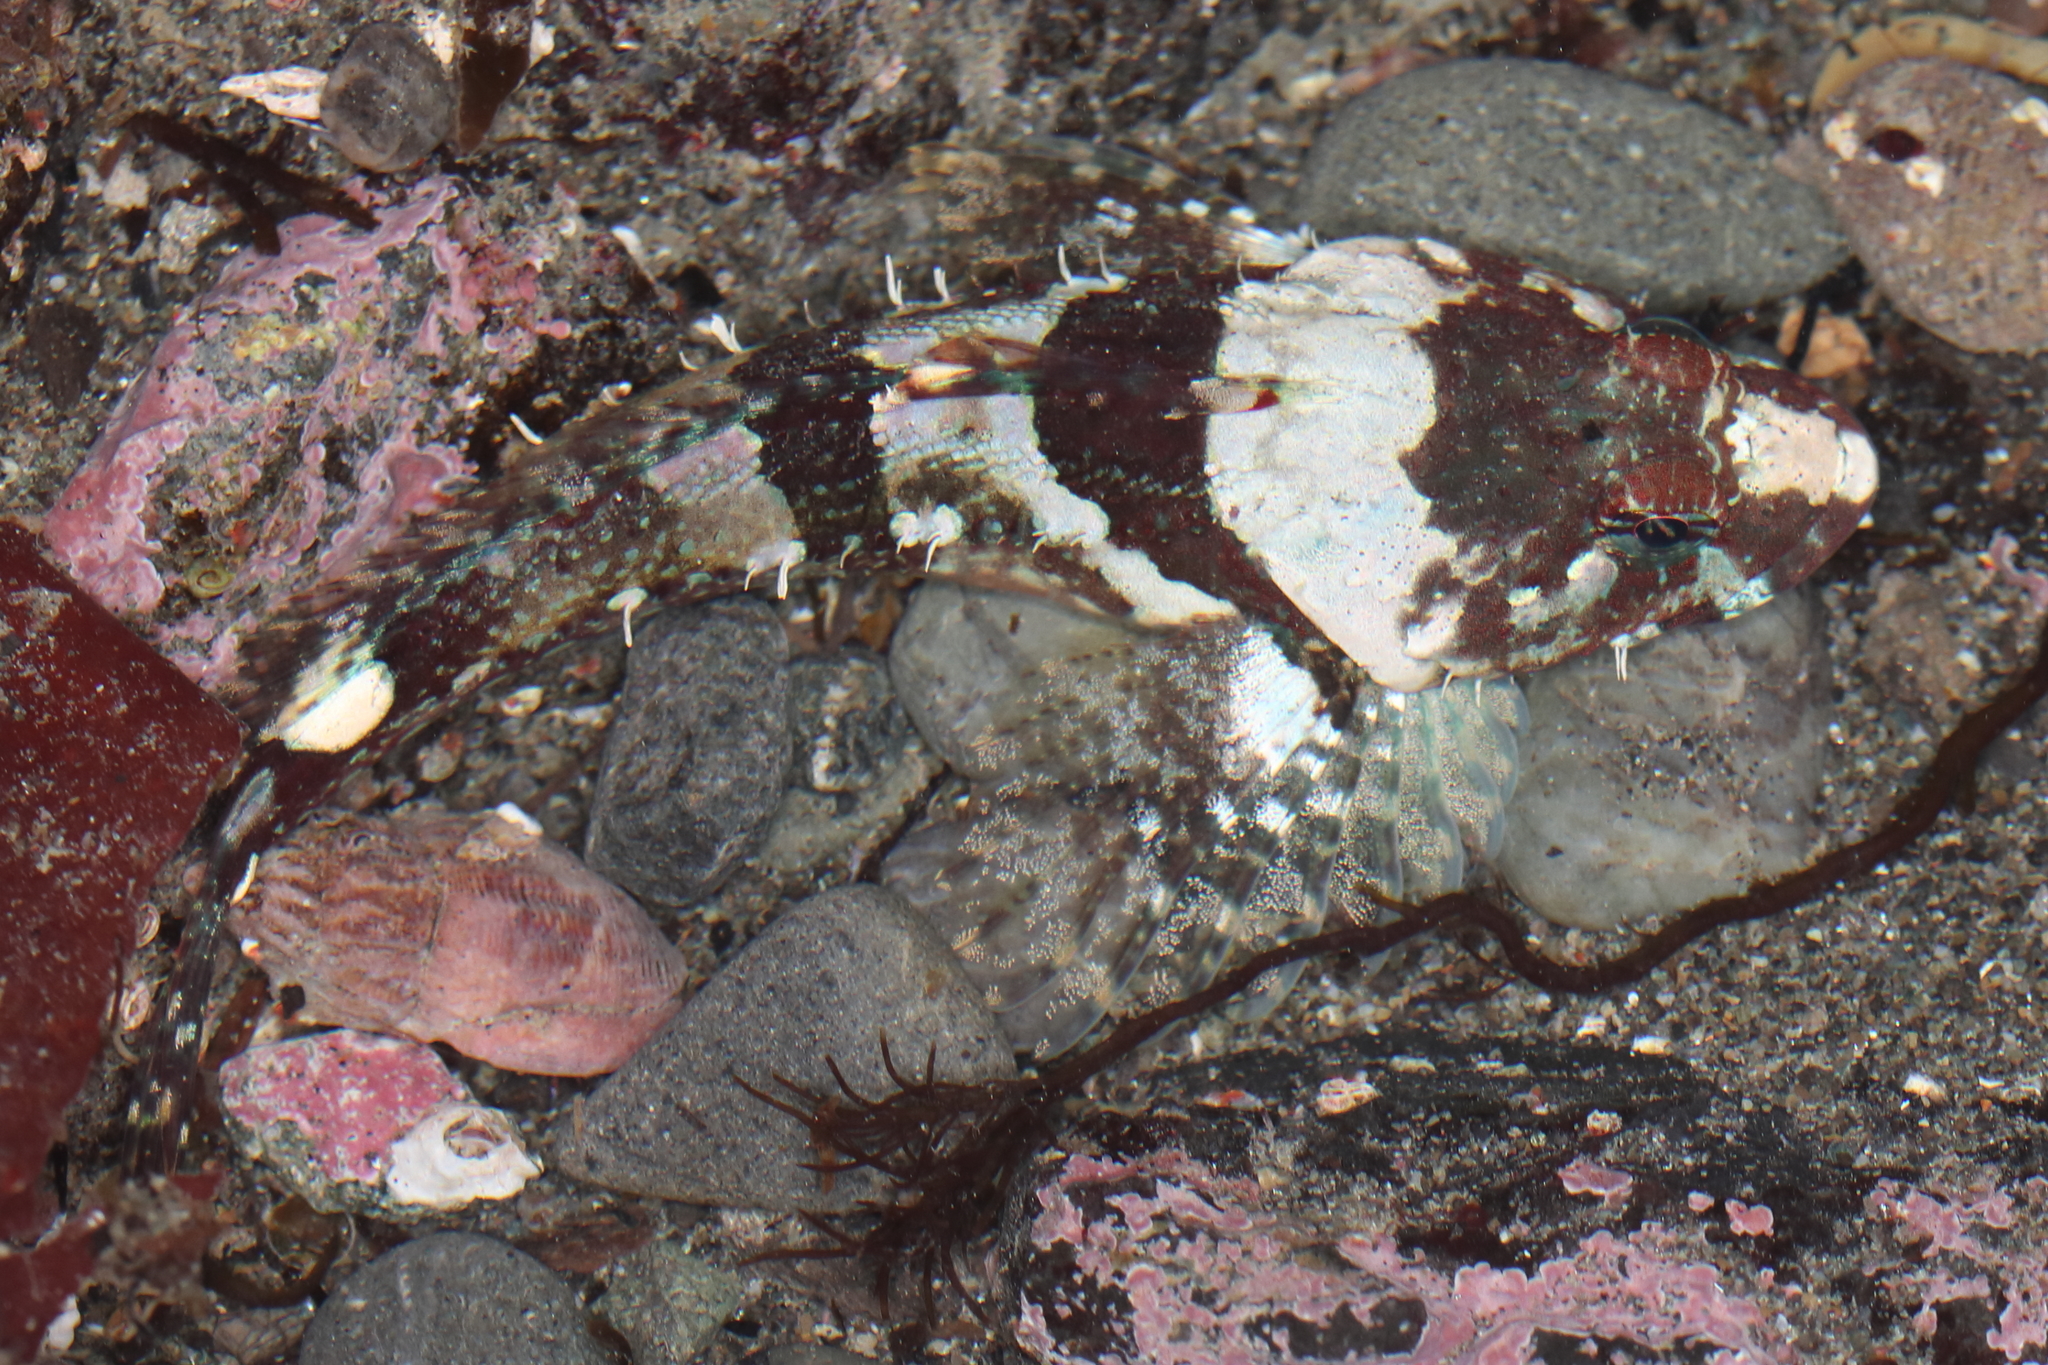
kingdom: Animalia
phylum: Chordata
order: Scorpaeniformes
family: Cottidae
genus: Artedius
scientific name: Artedius lateralis
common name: Smooth-head sculpin
